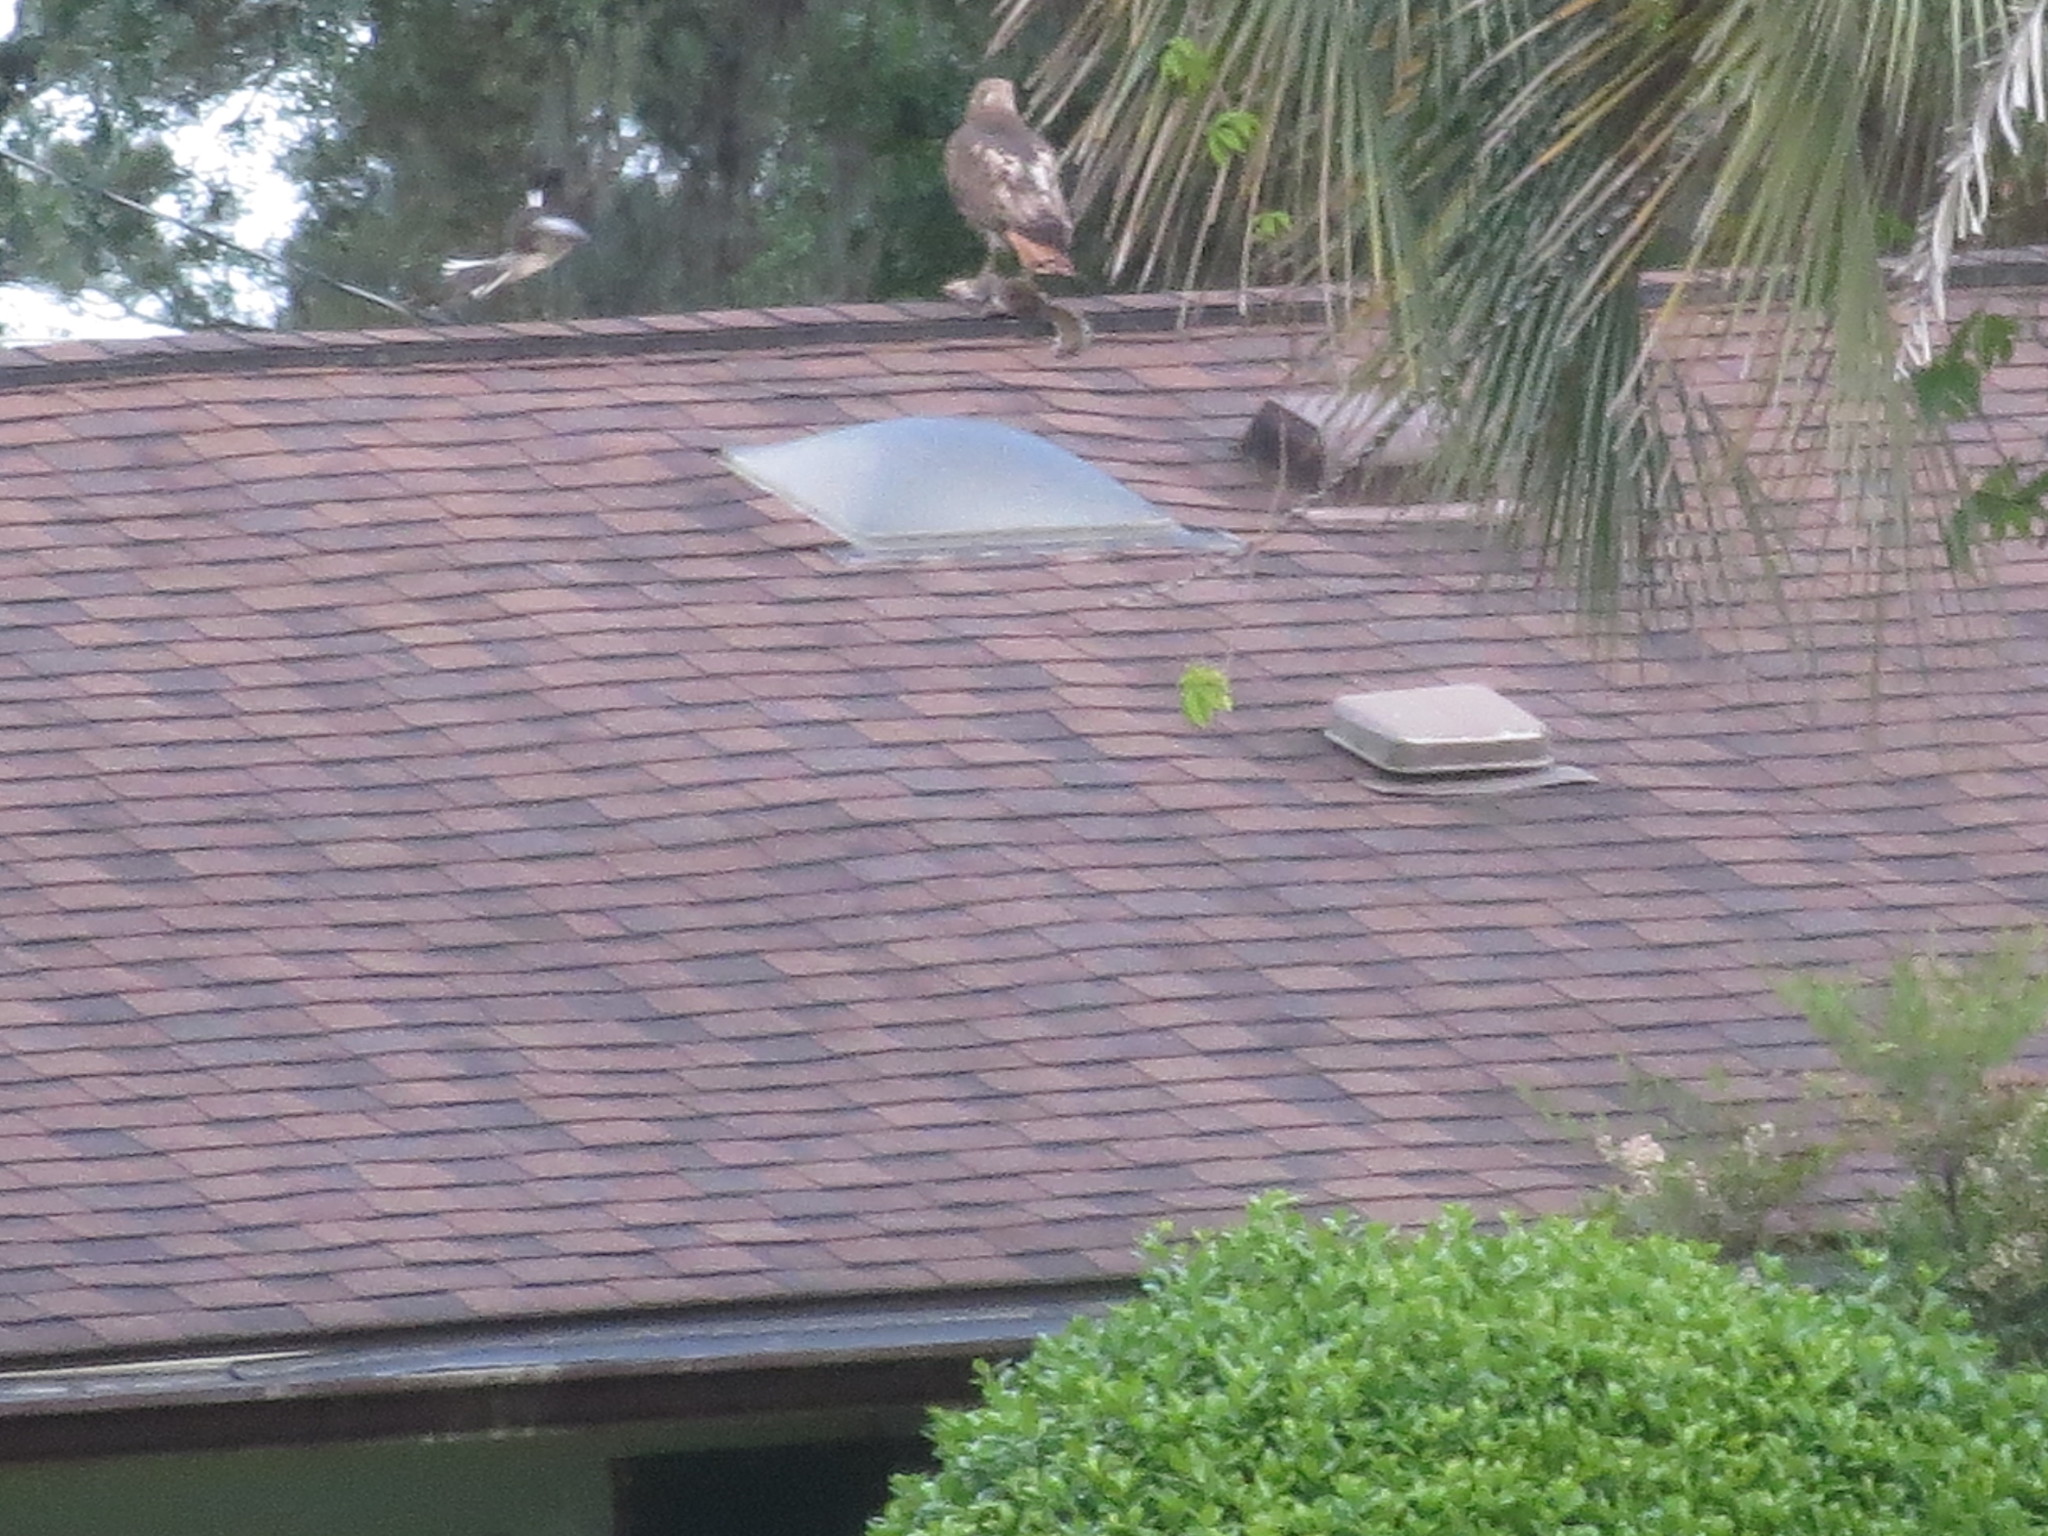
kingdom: Animalia
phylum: Chordata
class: Aves
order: Passeriformes
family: Mimidae
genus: Mimus
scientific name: Mimus polyglottos
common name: Northern mockingbird
